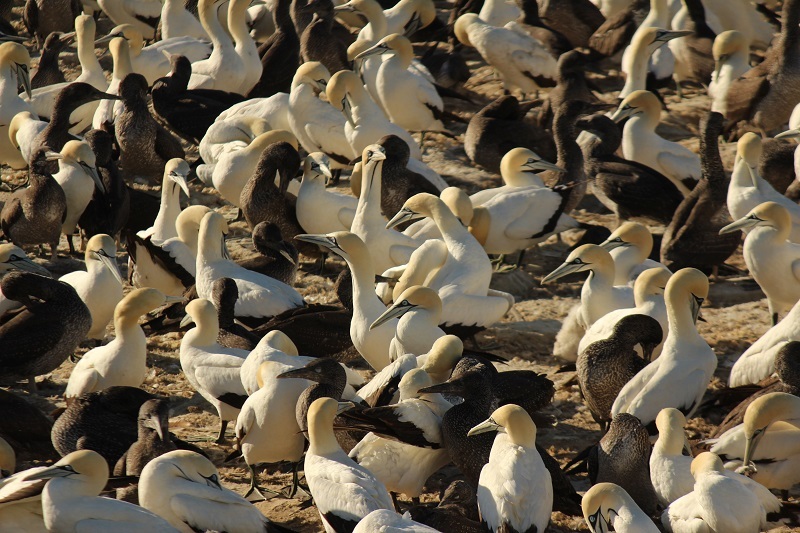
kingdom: Animalia
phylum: Chordata
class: Aves
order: Suliformes
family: Sulidae
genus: Morus
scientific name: Morus capensis
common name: Cape gannet
